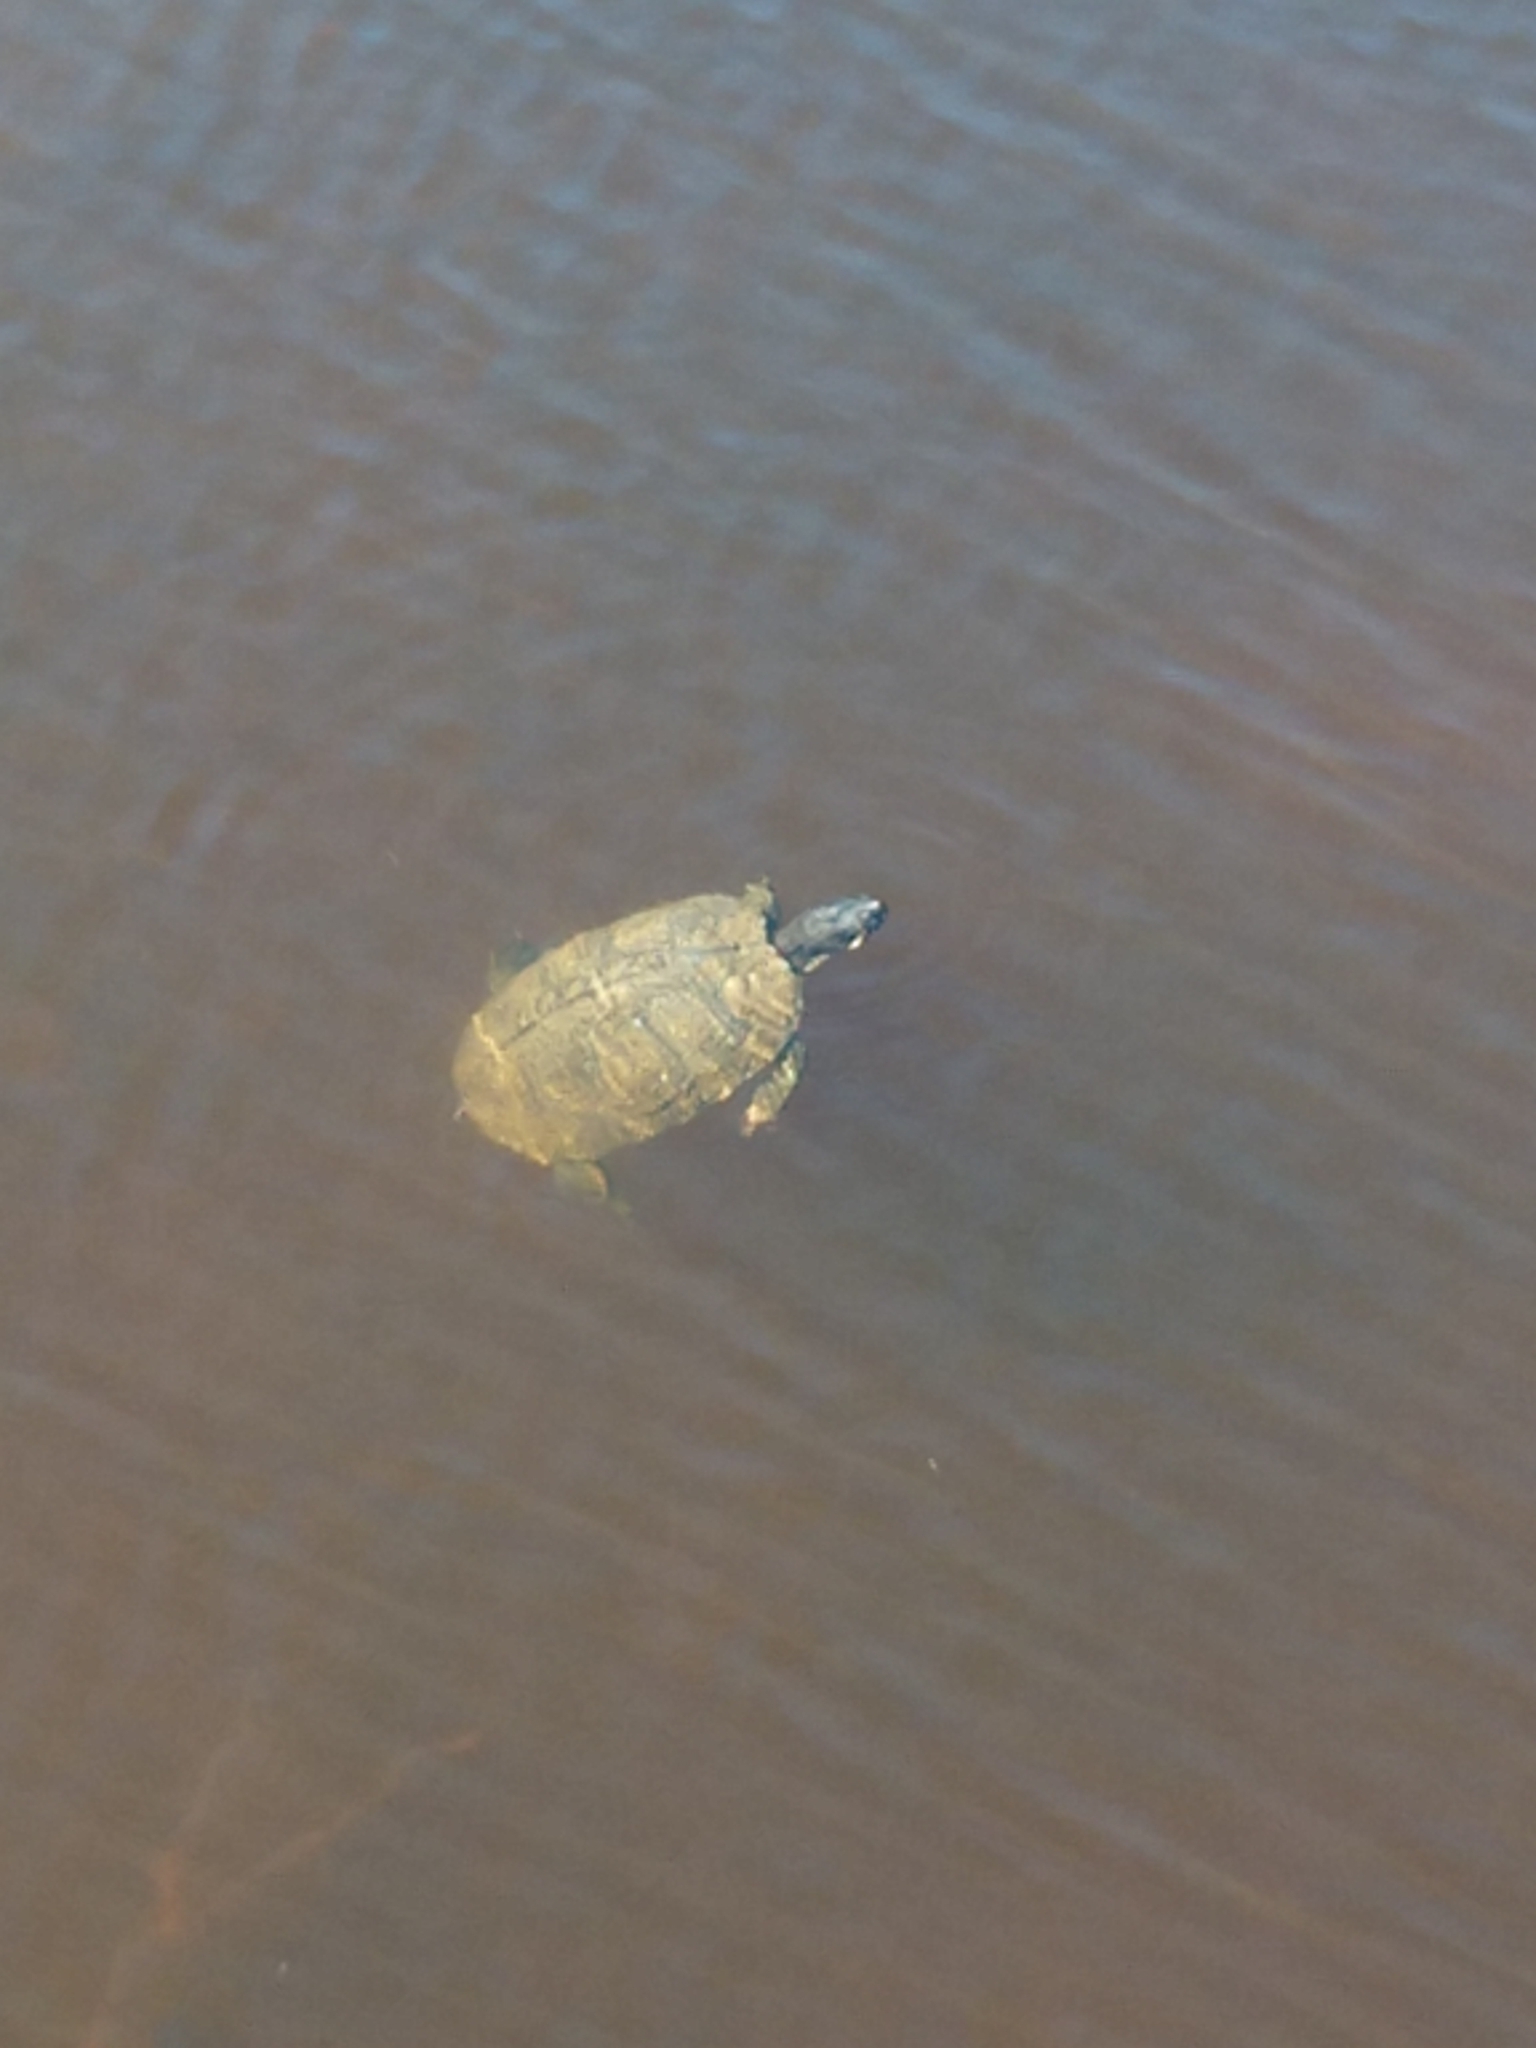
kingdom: Animalia
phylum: Chordata
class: Testudines
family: Emydidae
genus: Trachemys
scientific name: Trachemys scripta
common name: Slider
